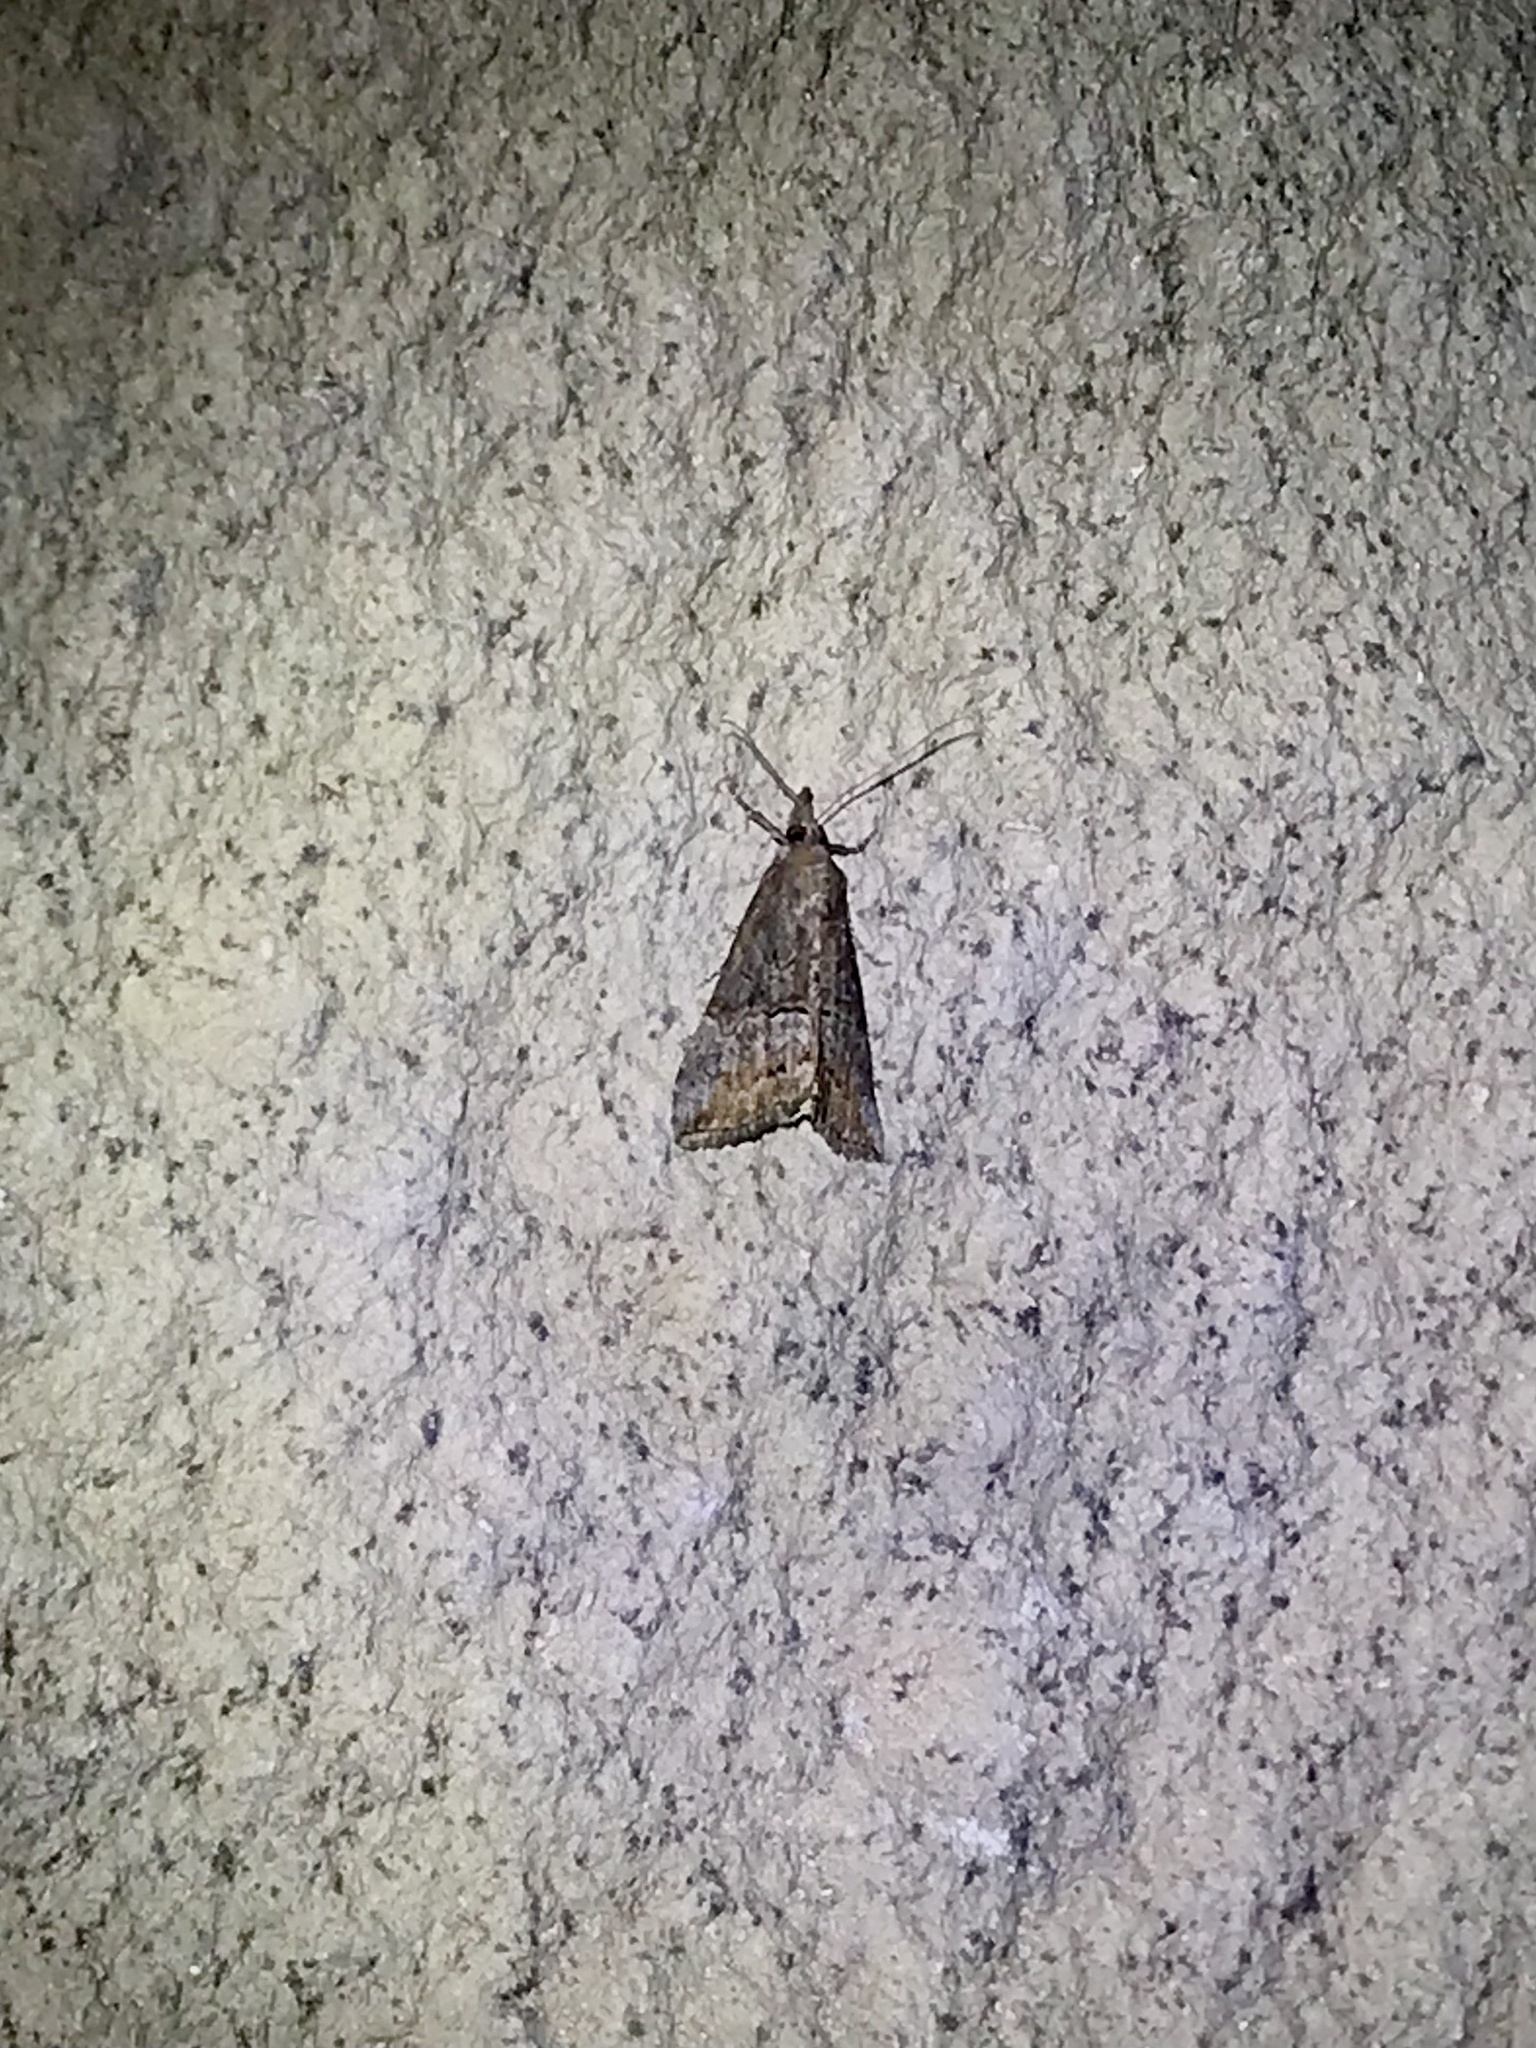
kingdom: Animalia
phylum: Arthropoda
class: Insecta
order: Lepidoptera
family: Erebidae
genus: Hypena
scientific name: Hypena scabra
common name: Green cloverworm
